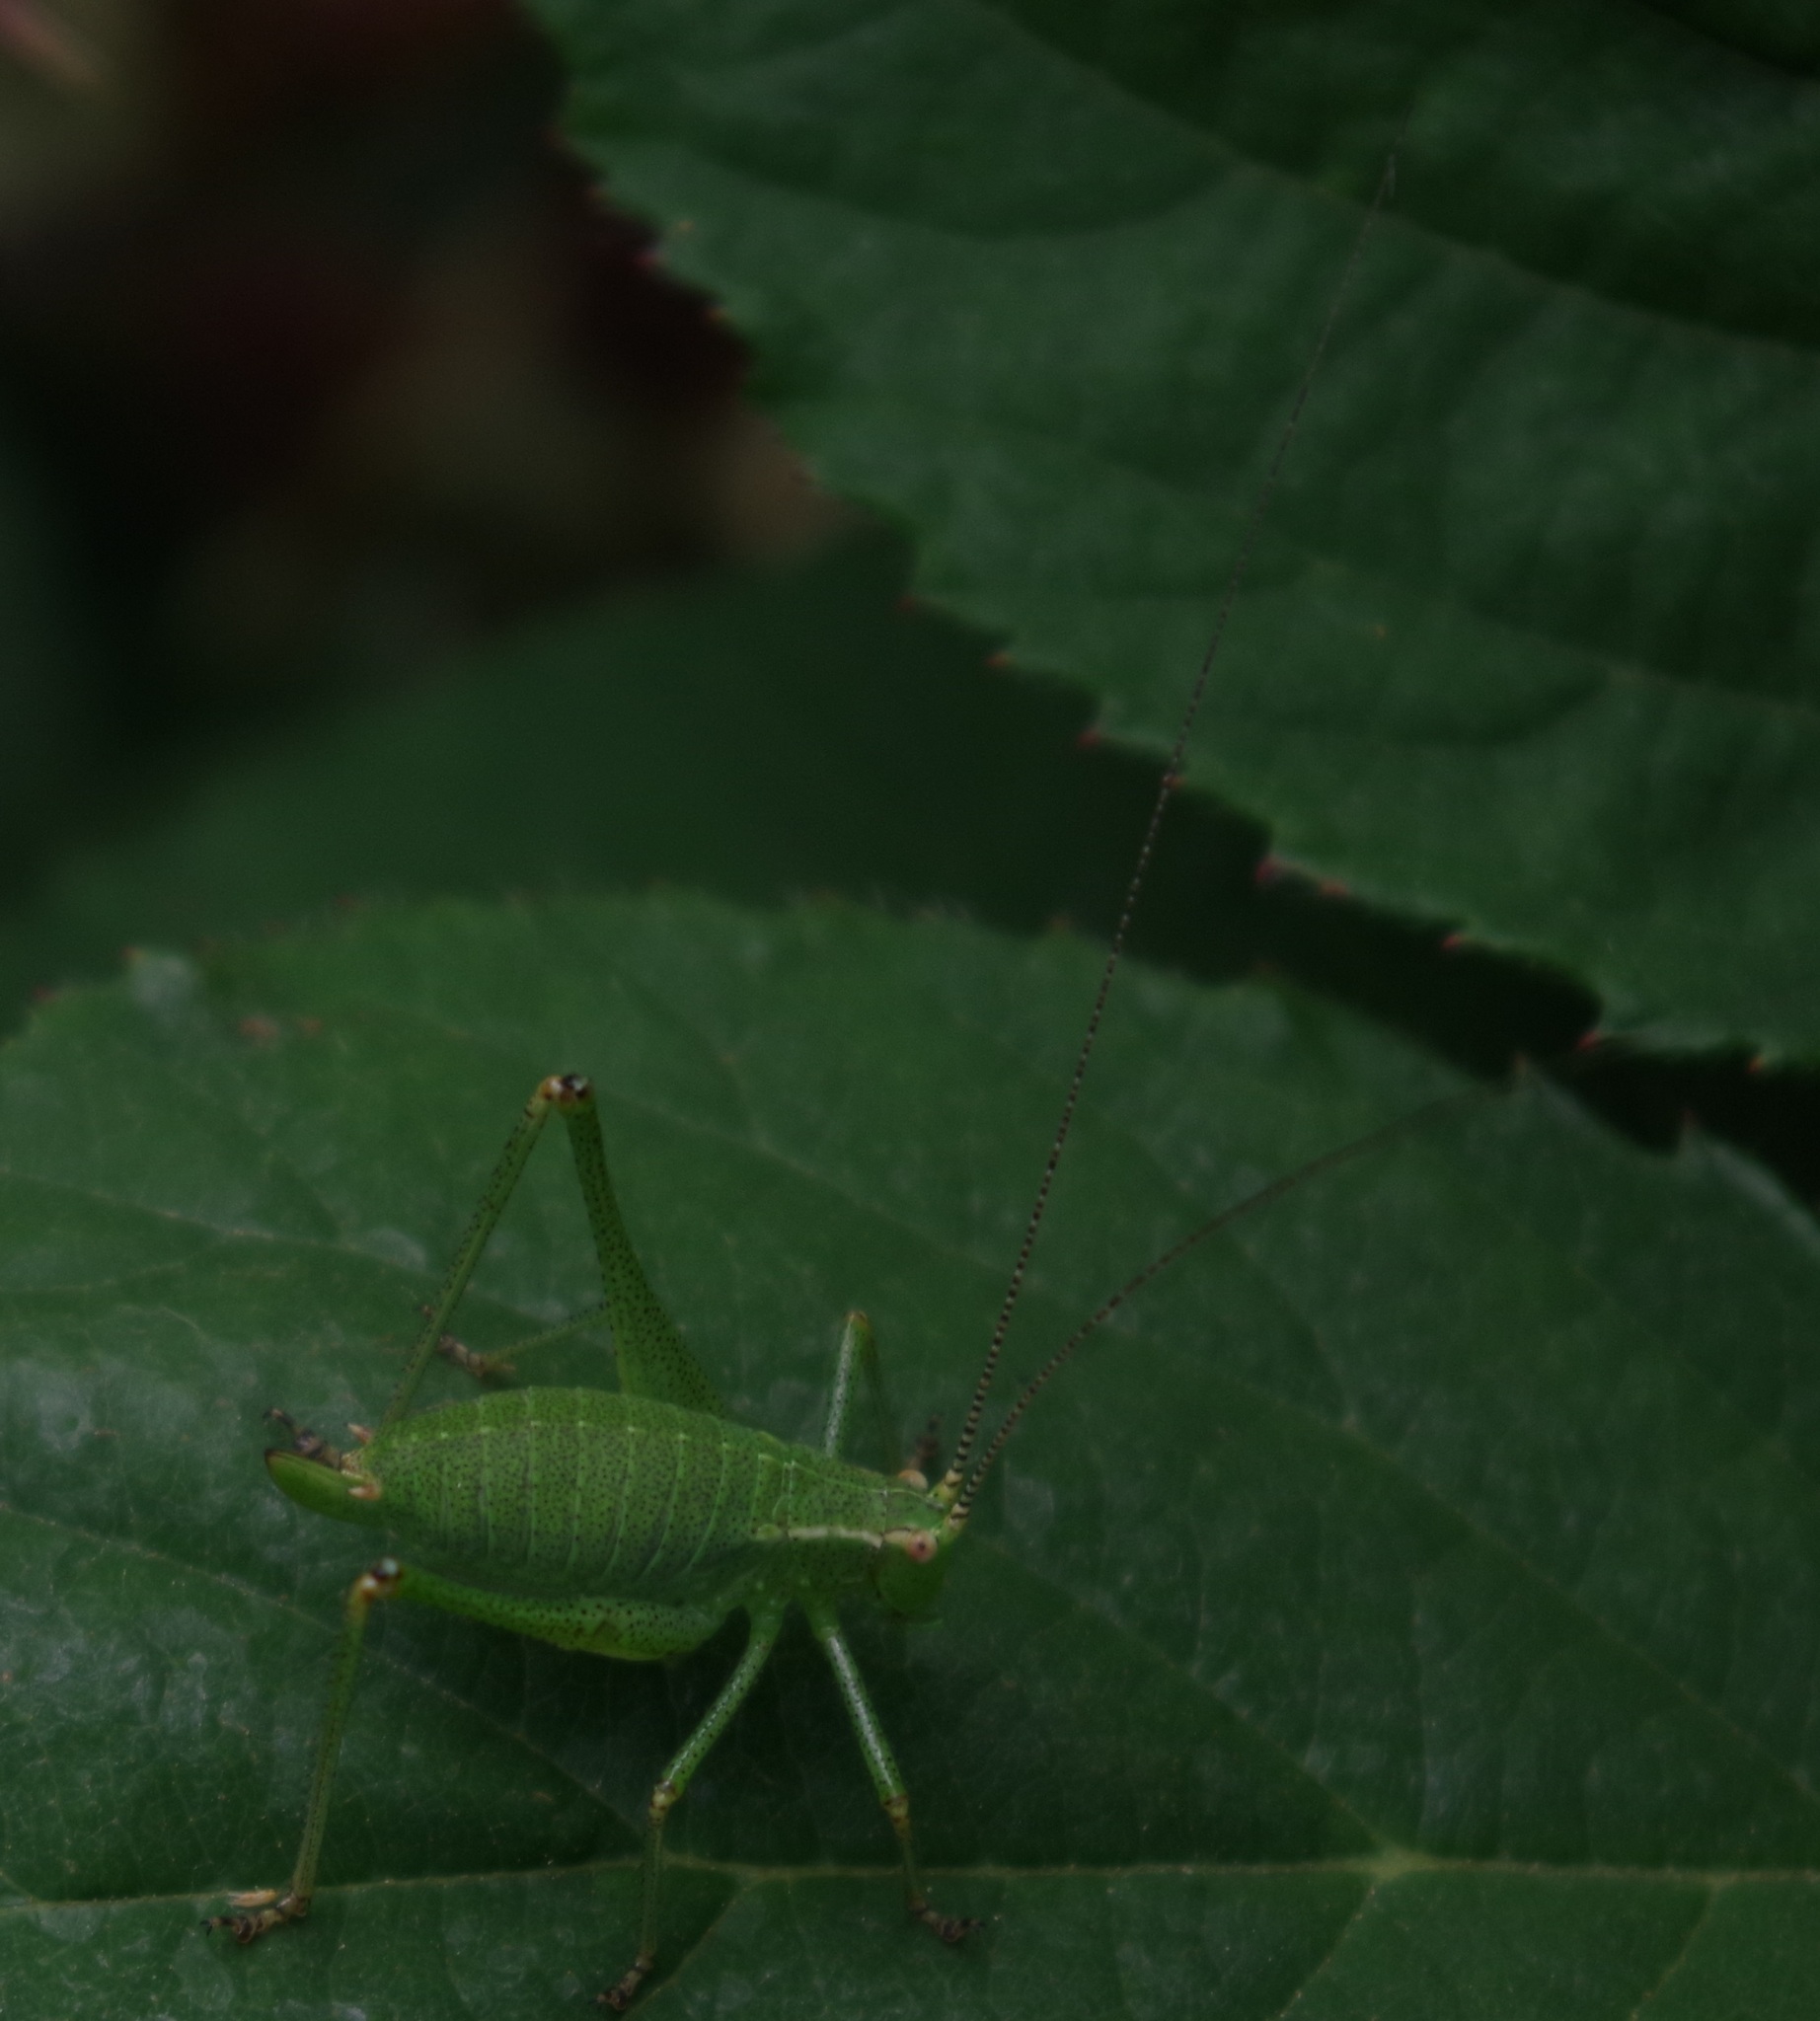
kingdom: Animalia
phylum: Arthropoda
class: Insecta
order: Orthoptera
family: Tettigoniidae
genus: Leptophyes
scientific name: Leptophyes punctatissima
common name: Speckled bush-cricket
